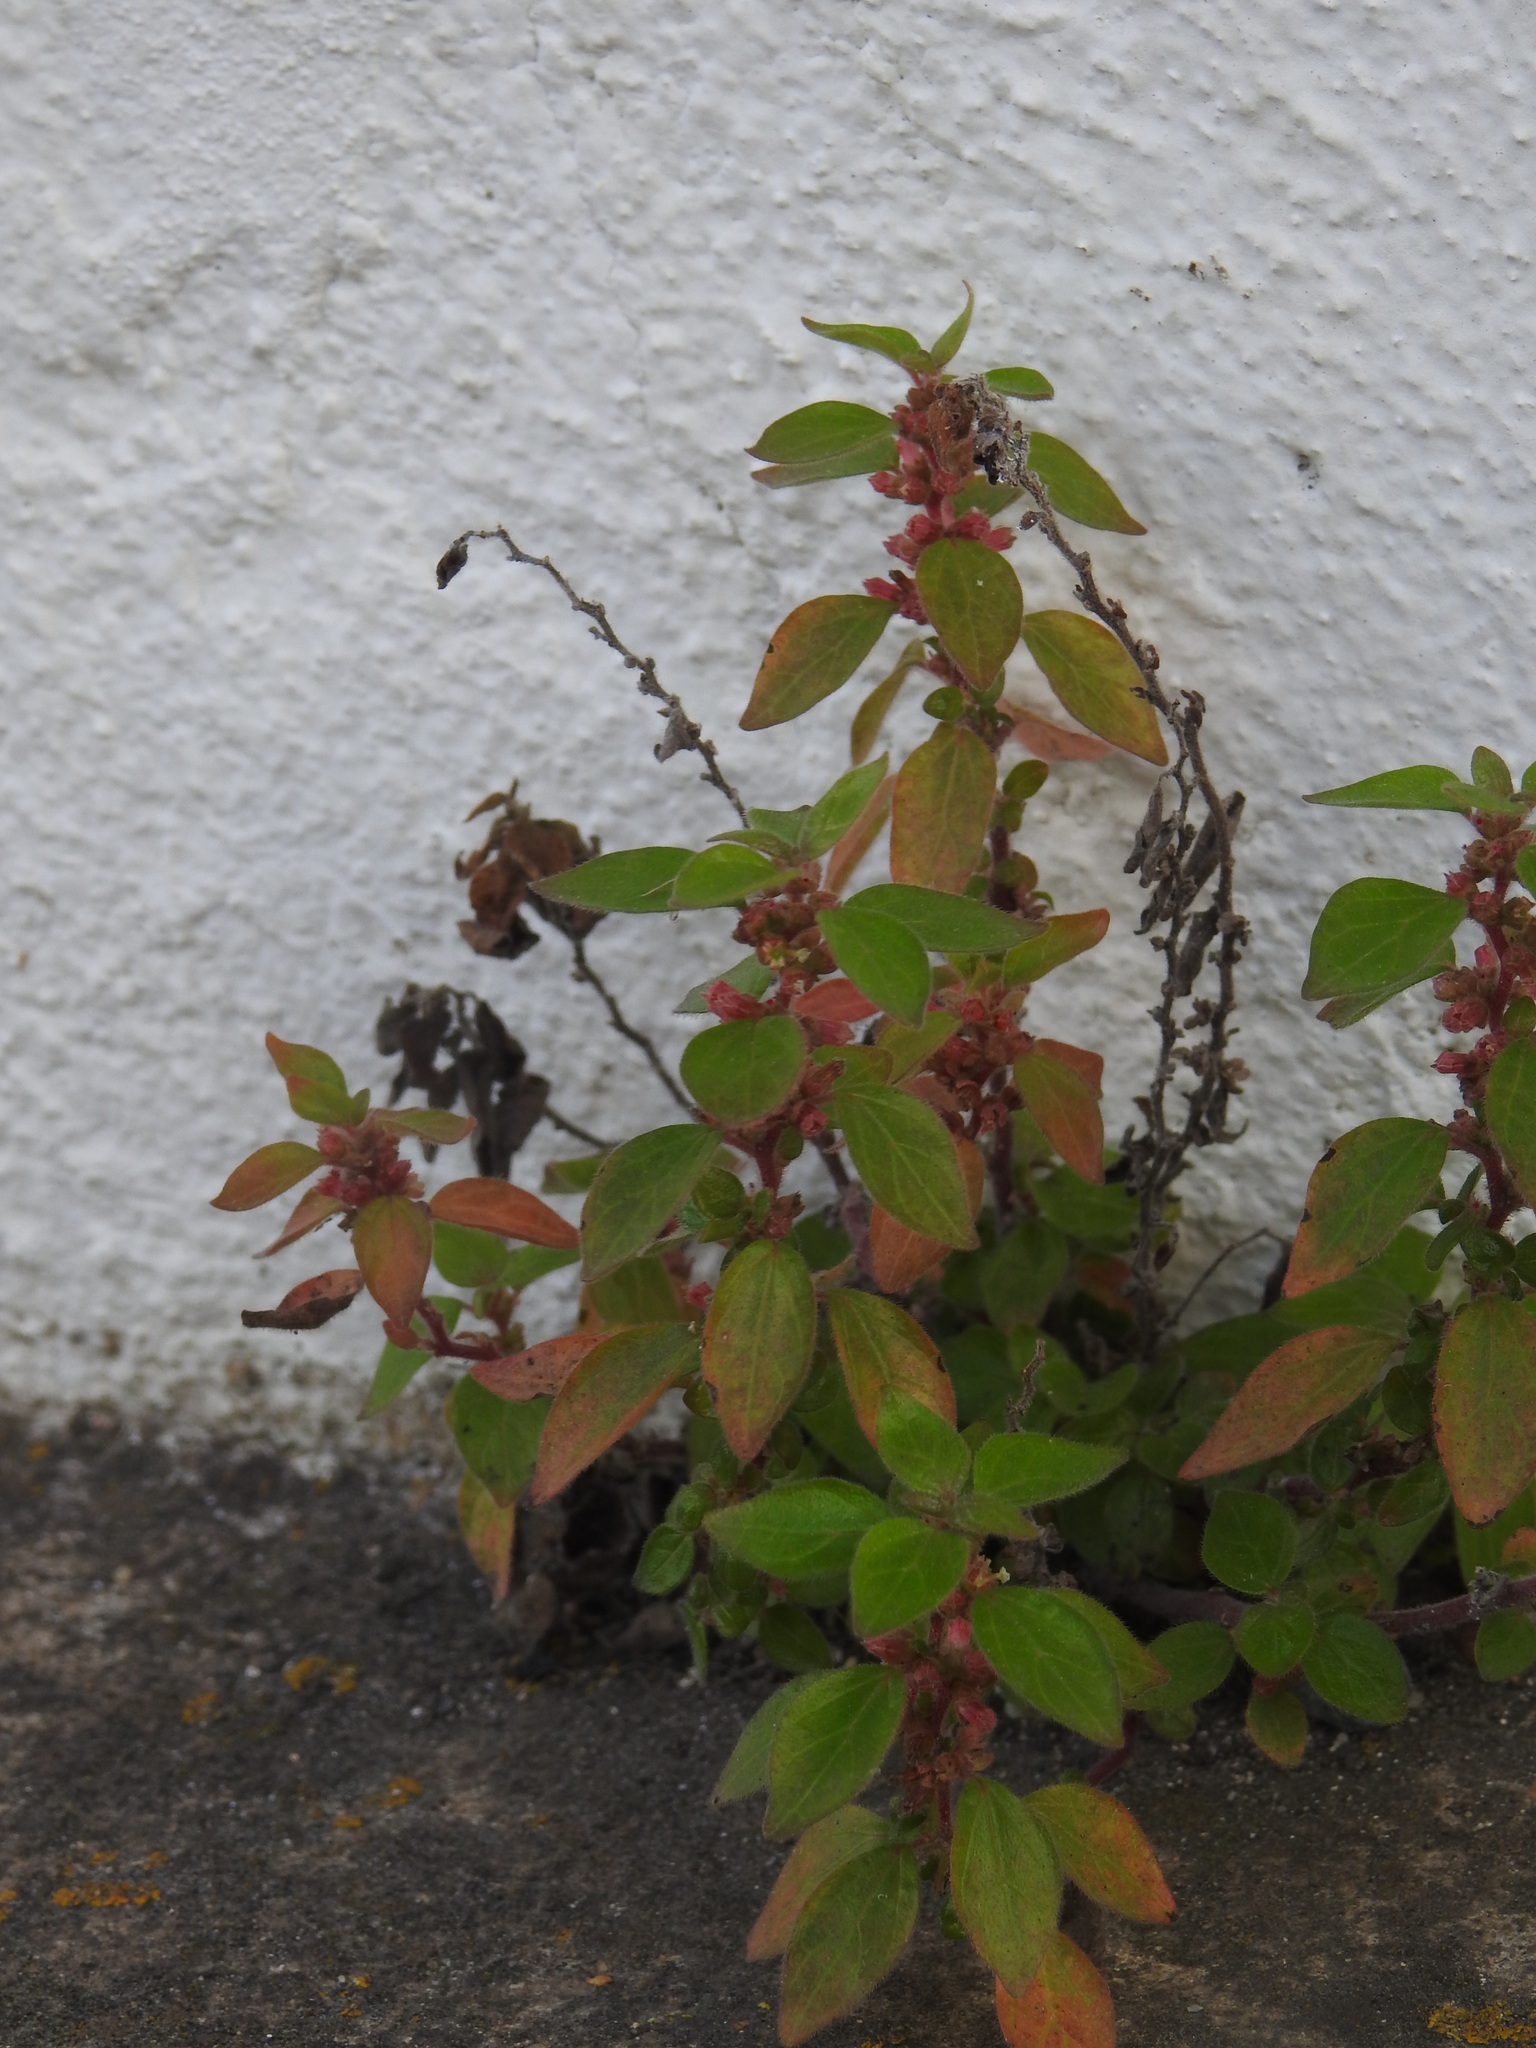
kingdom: Plantae
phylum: Tracheophyta
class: Magnoliopsida
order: Rosales
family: Urticaceae
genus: Parietaria
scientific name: Parietaria judaica
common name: Pellitory-of-the-wall
